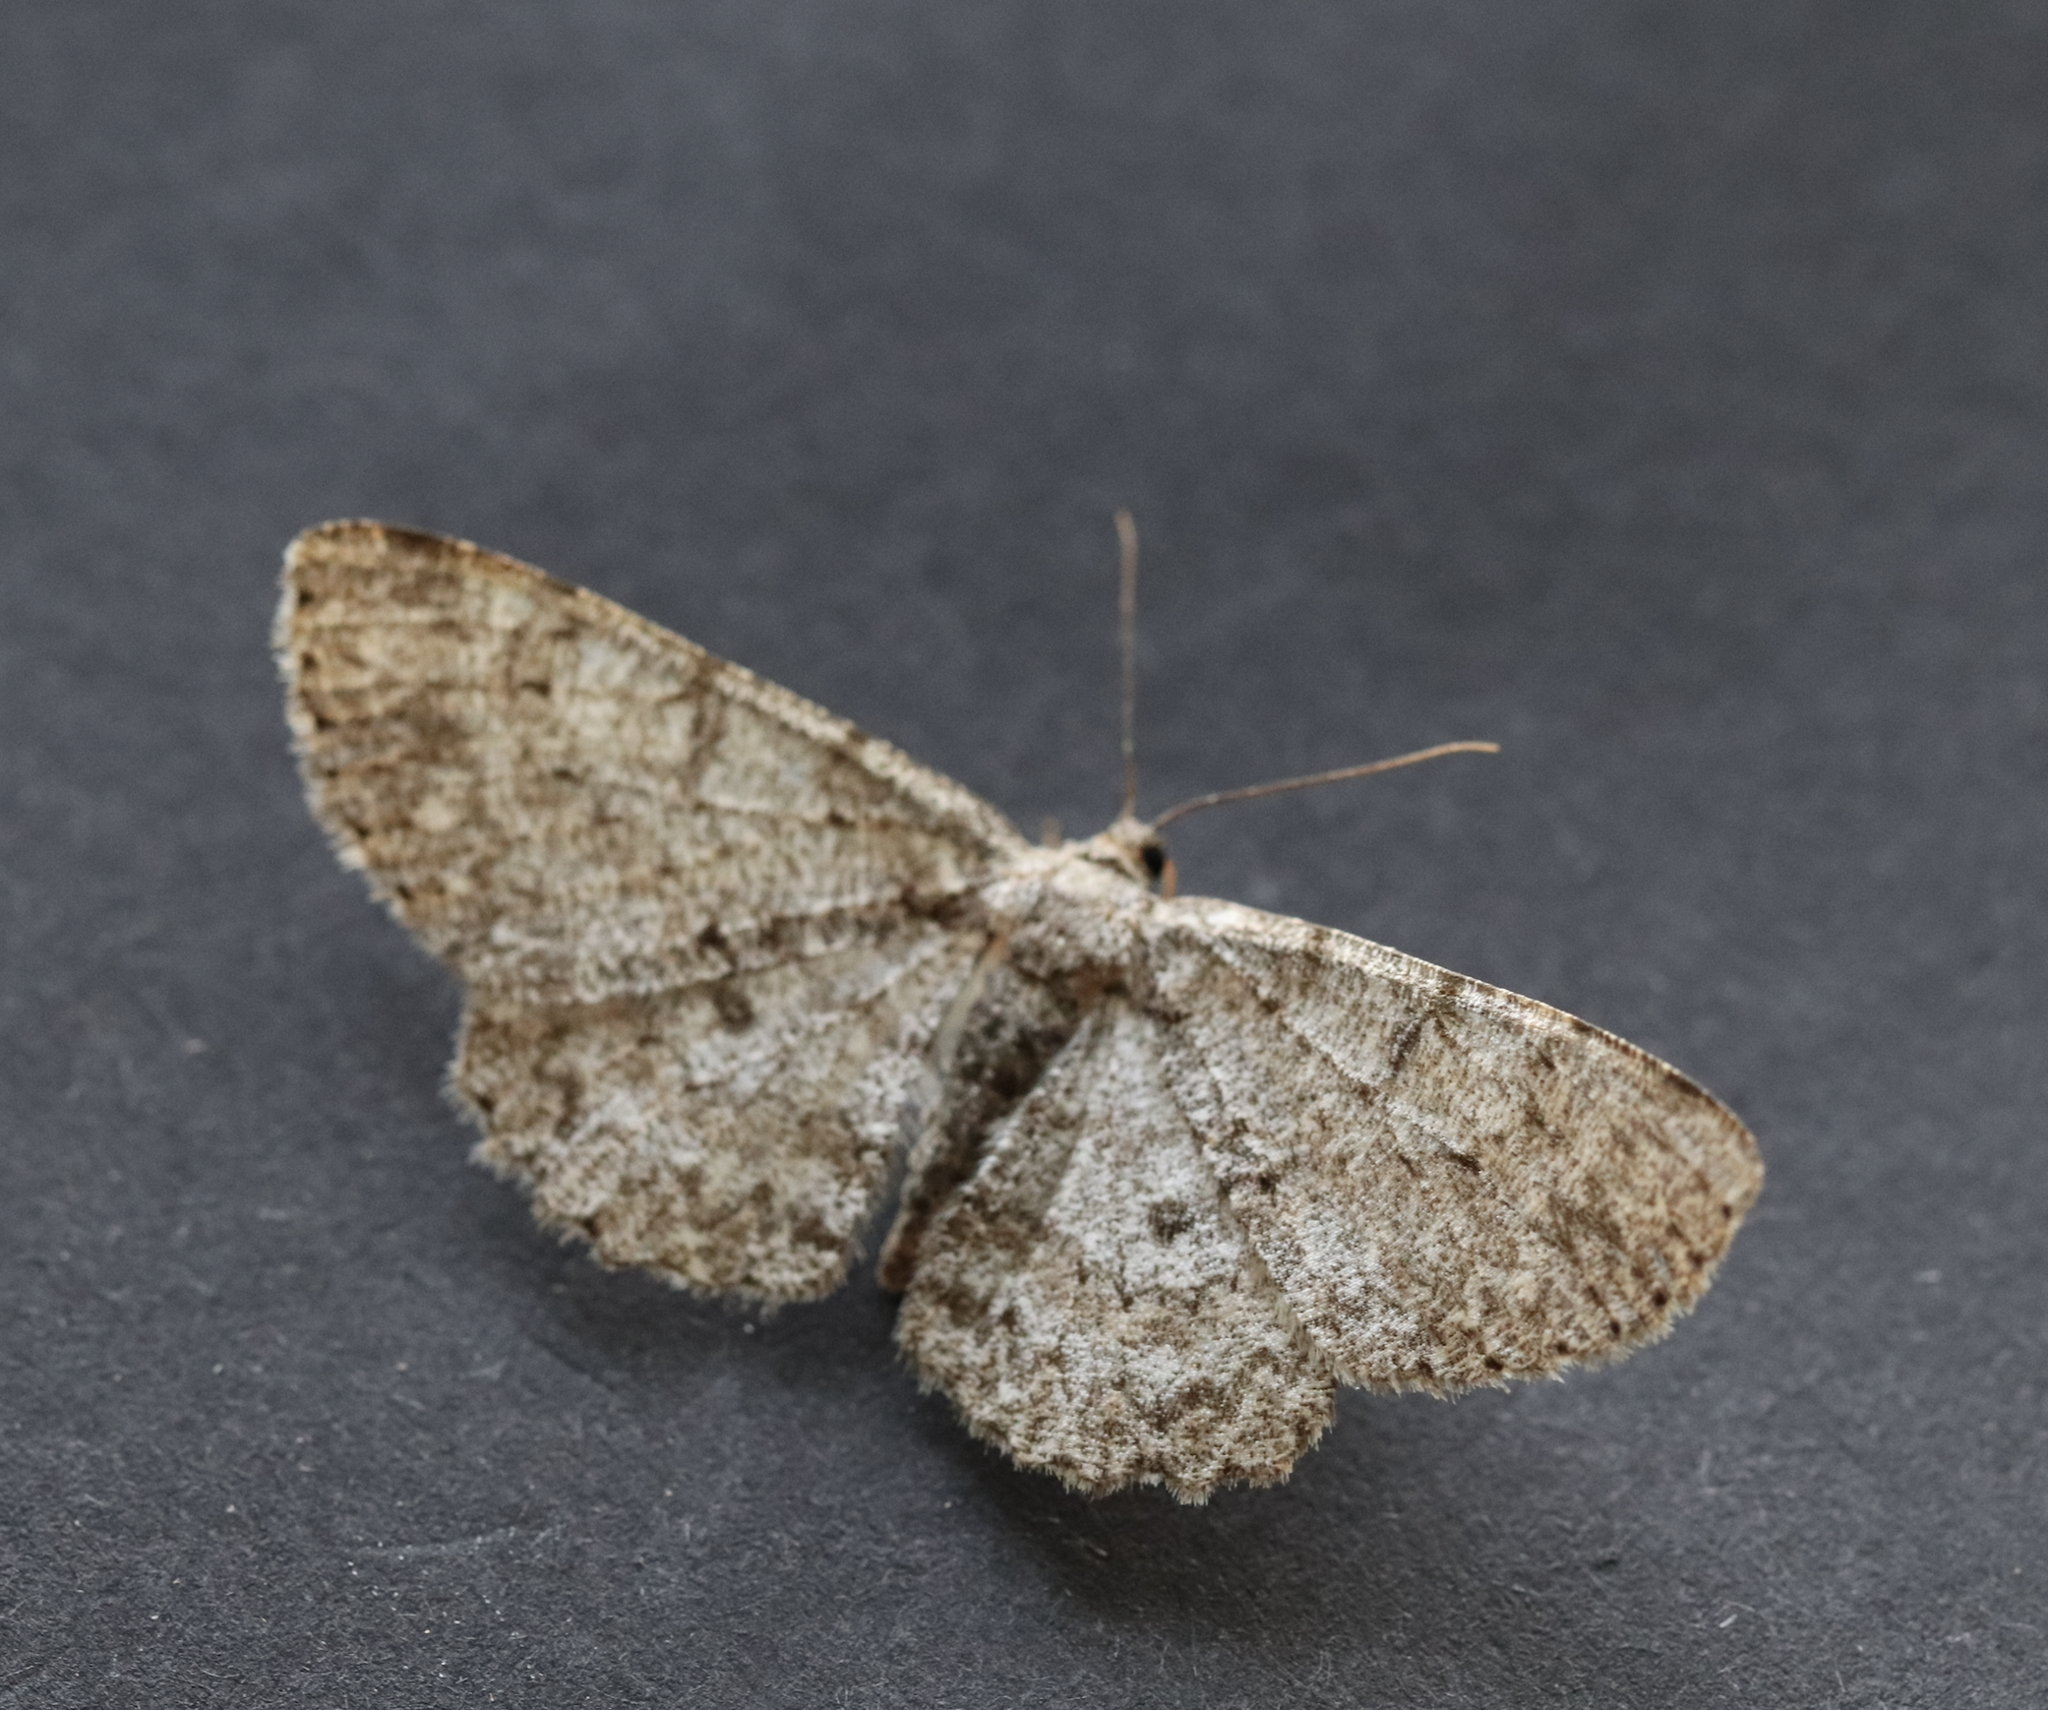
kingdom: Animalia
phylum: Arthropoda
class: Insecta
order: Lepidoptera
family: Geometridae
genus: Hypomecis
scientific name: Hypomecis punctinalis
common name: Pale oak beauty
